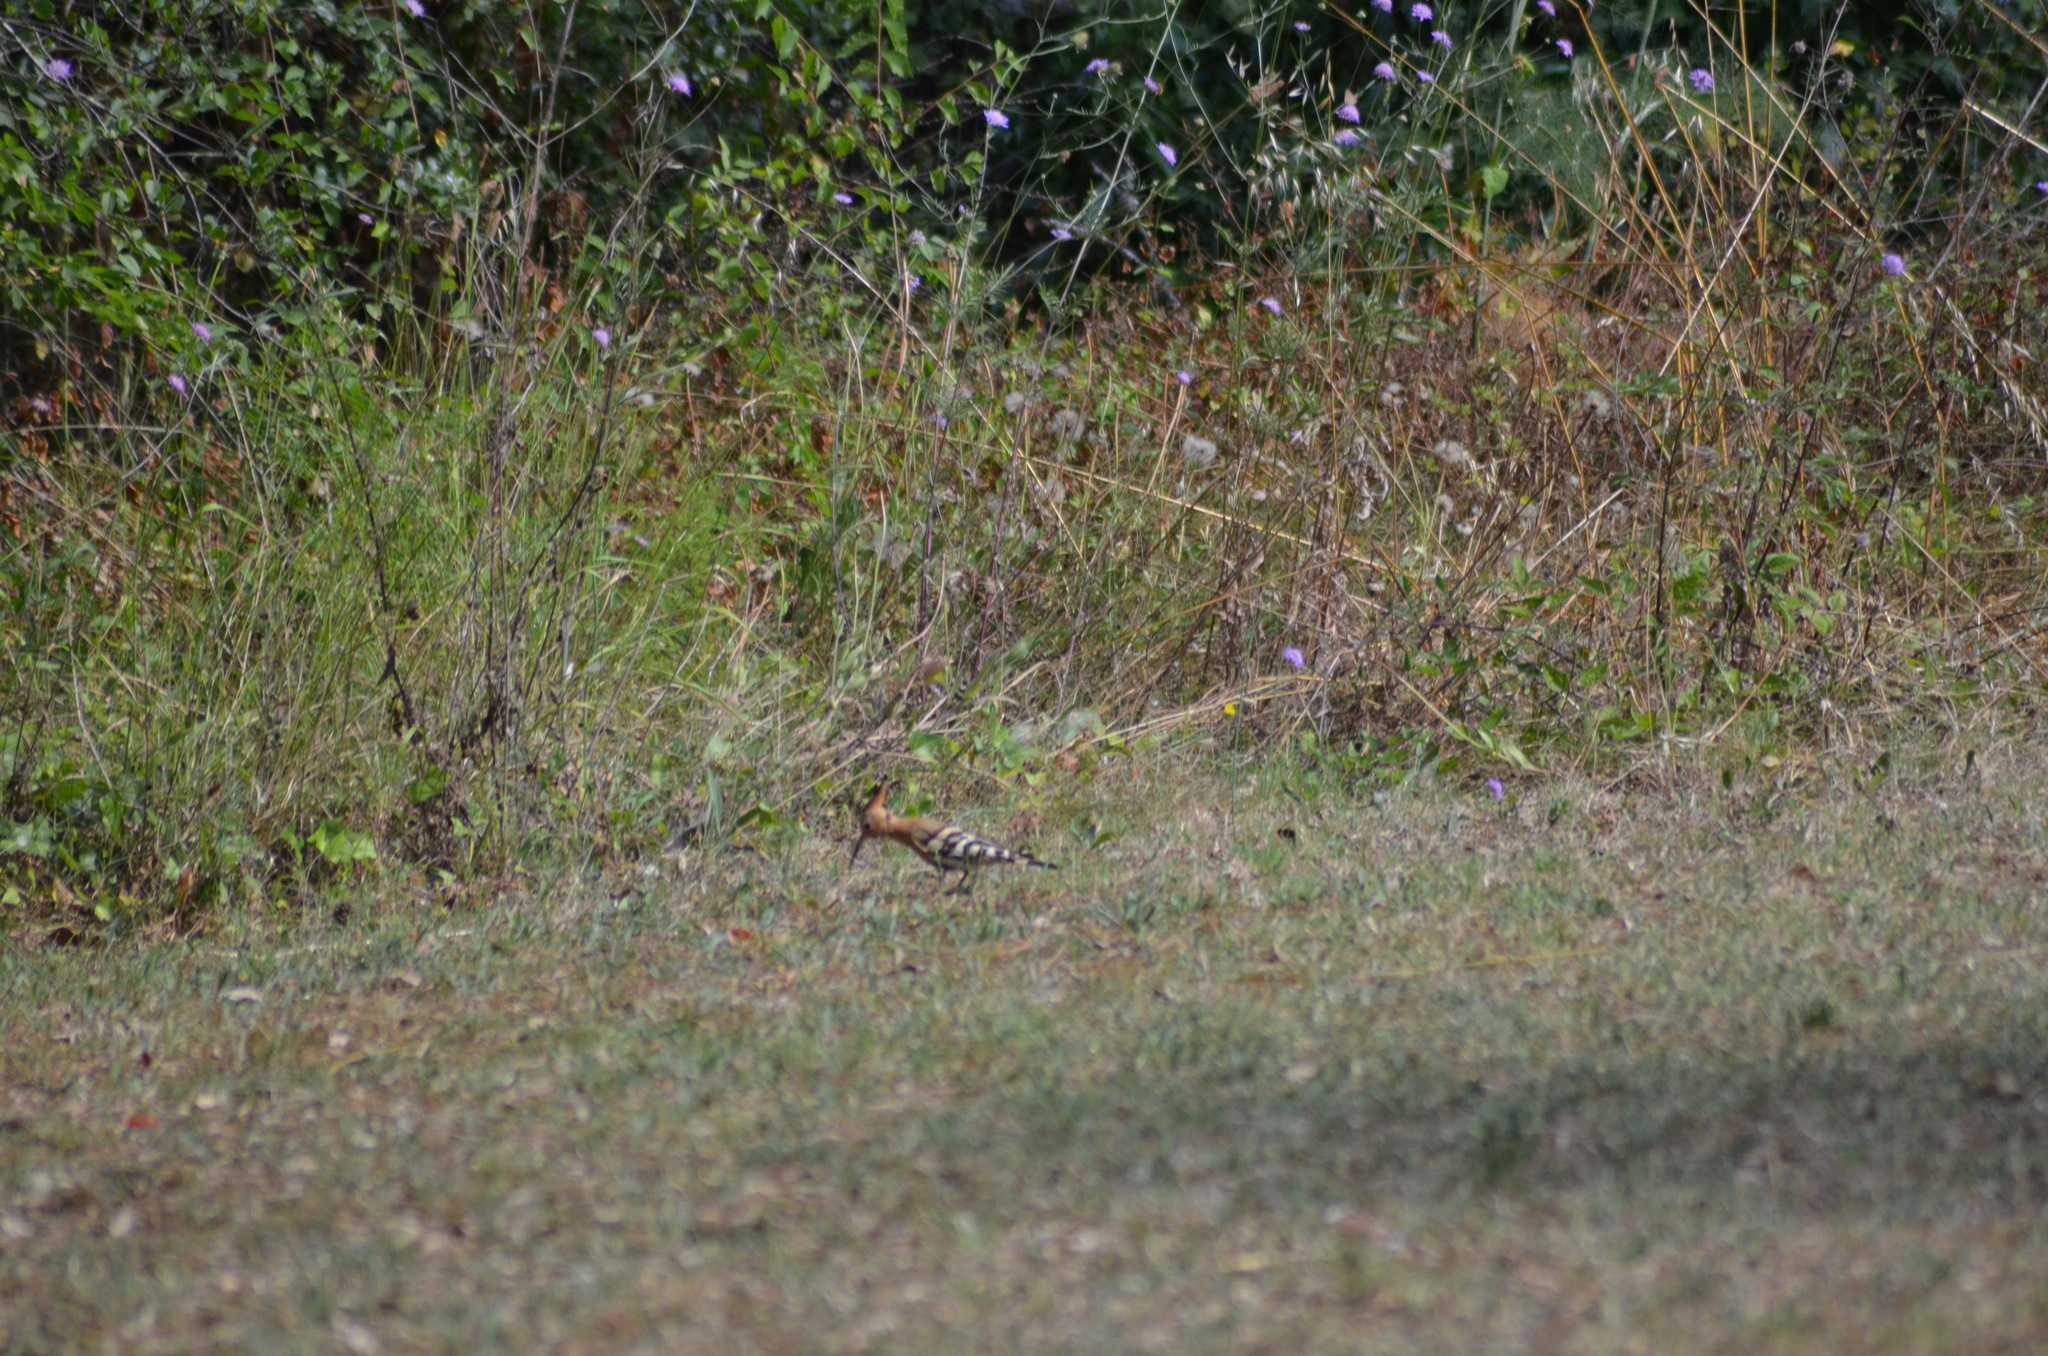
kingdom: Animalia
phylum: Chordata
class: Aves
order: Bucerotiformes
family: Upupidae
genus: Upupa
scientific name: Upupa epops
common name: Eurasian hoopoe
